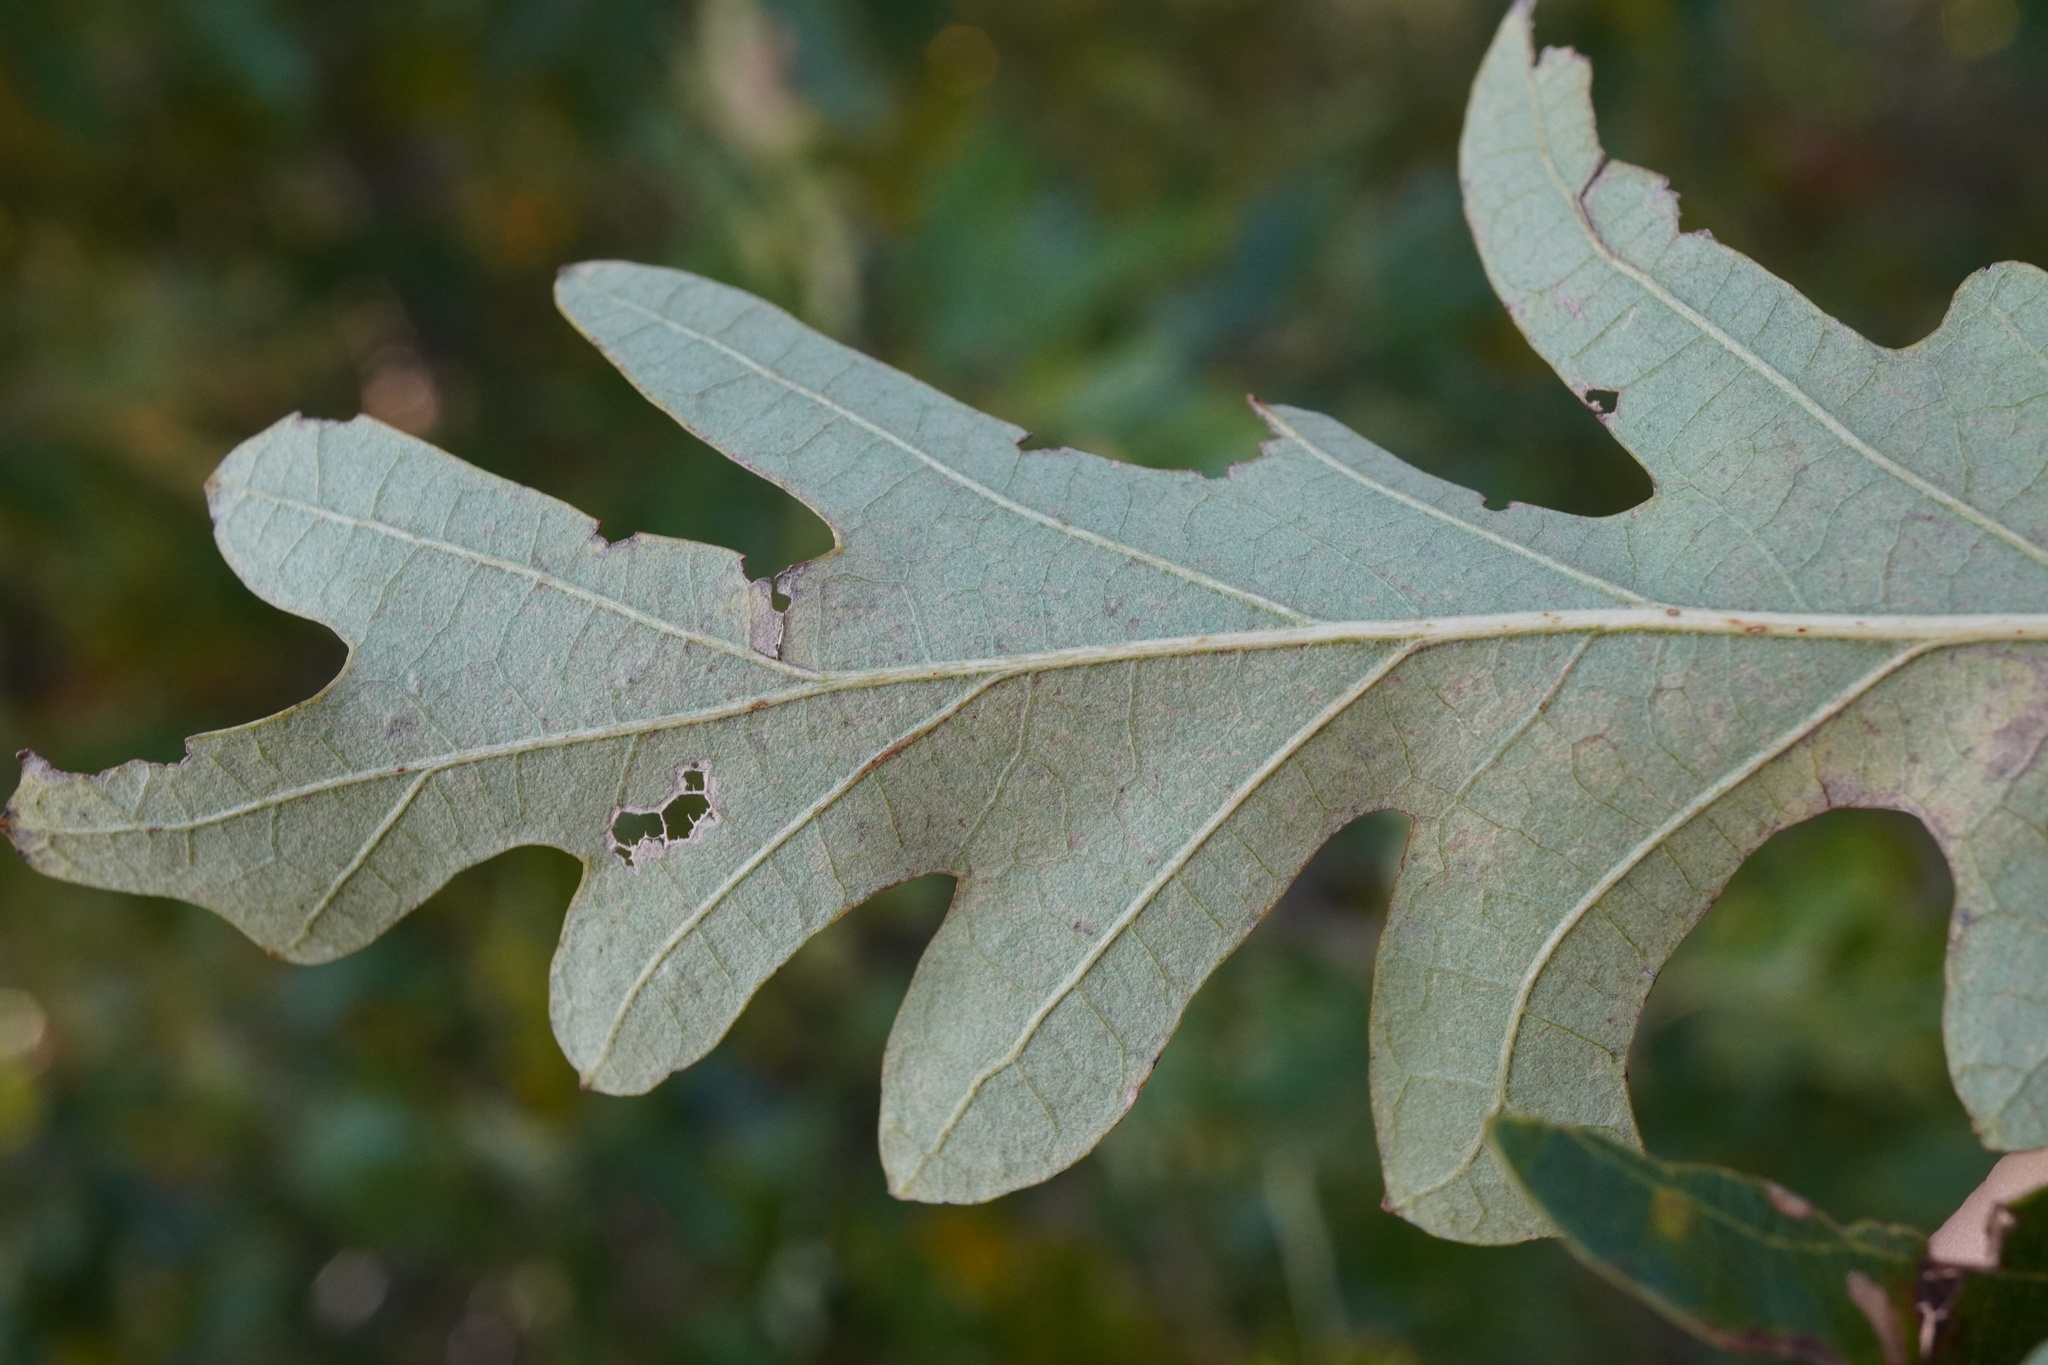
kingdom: Plantae
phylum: Tracheophyta
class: Magnoliopsida
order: Fagales
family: Fagaceae
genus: Quercus
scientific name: Quercus cerris
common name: Turkey oak
